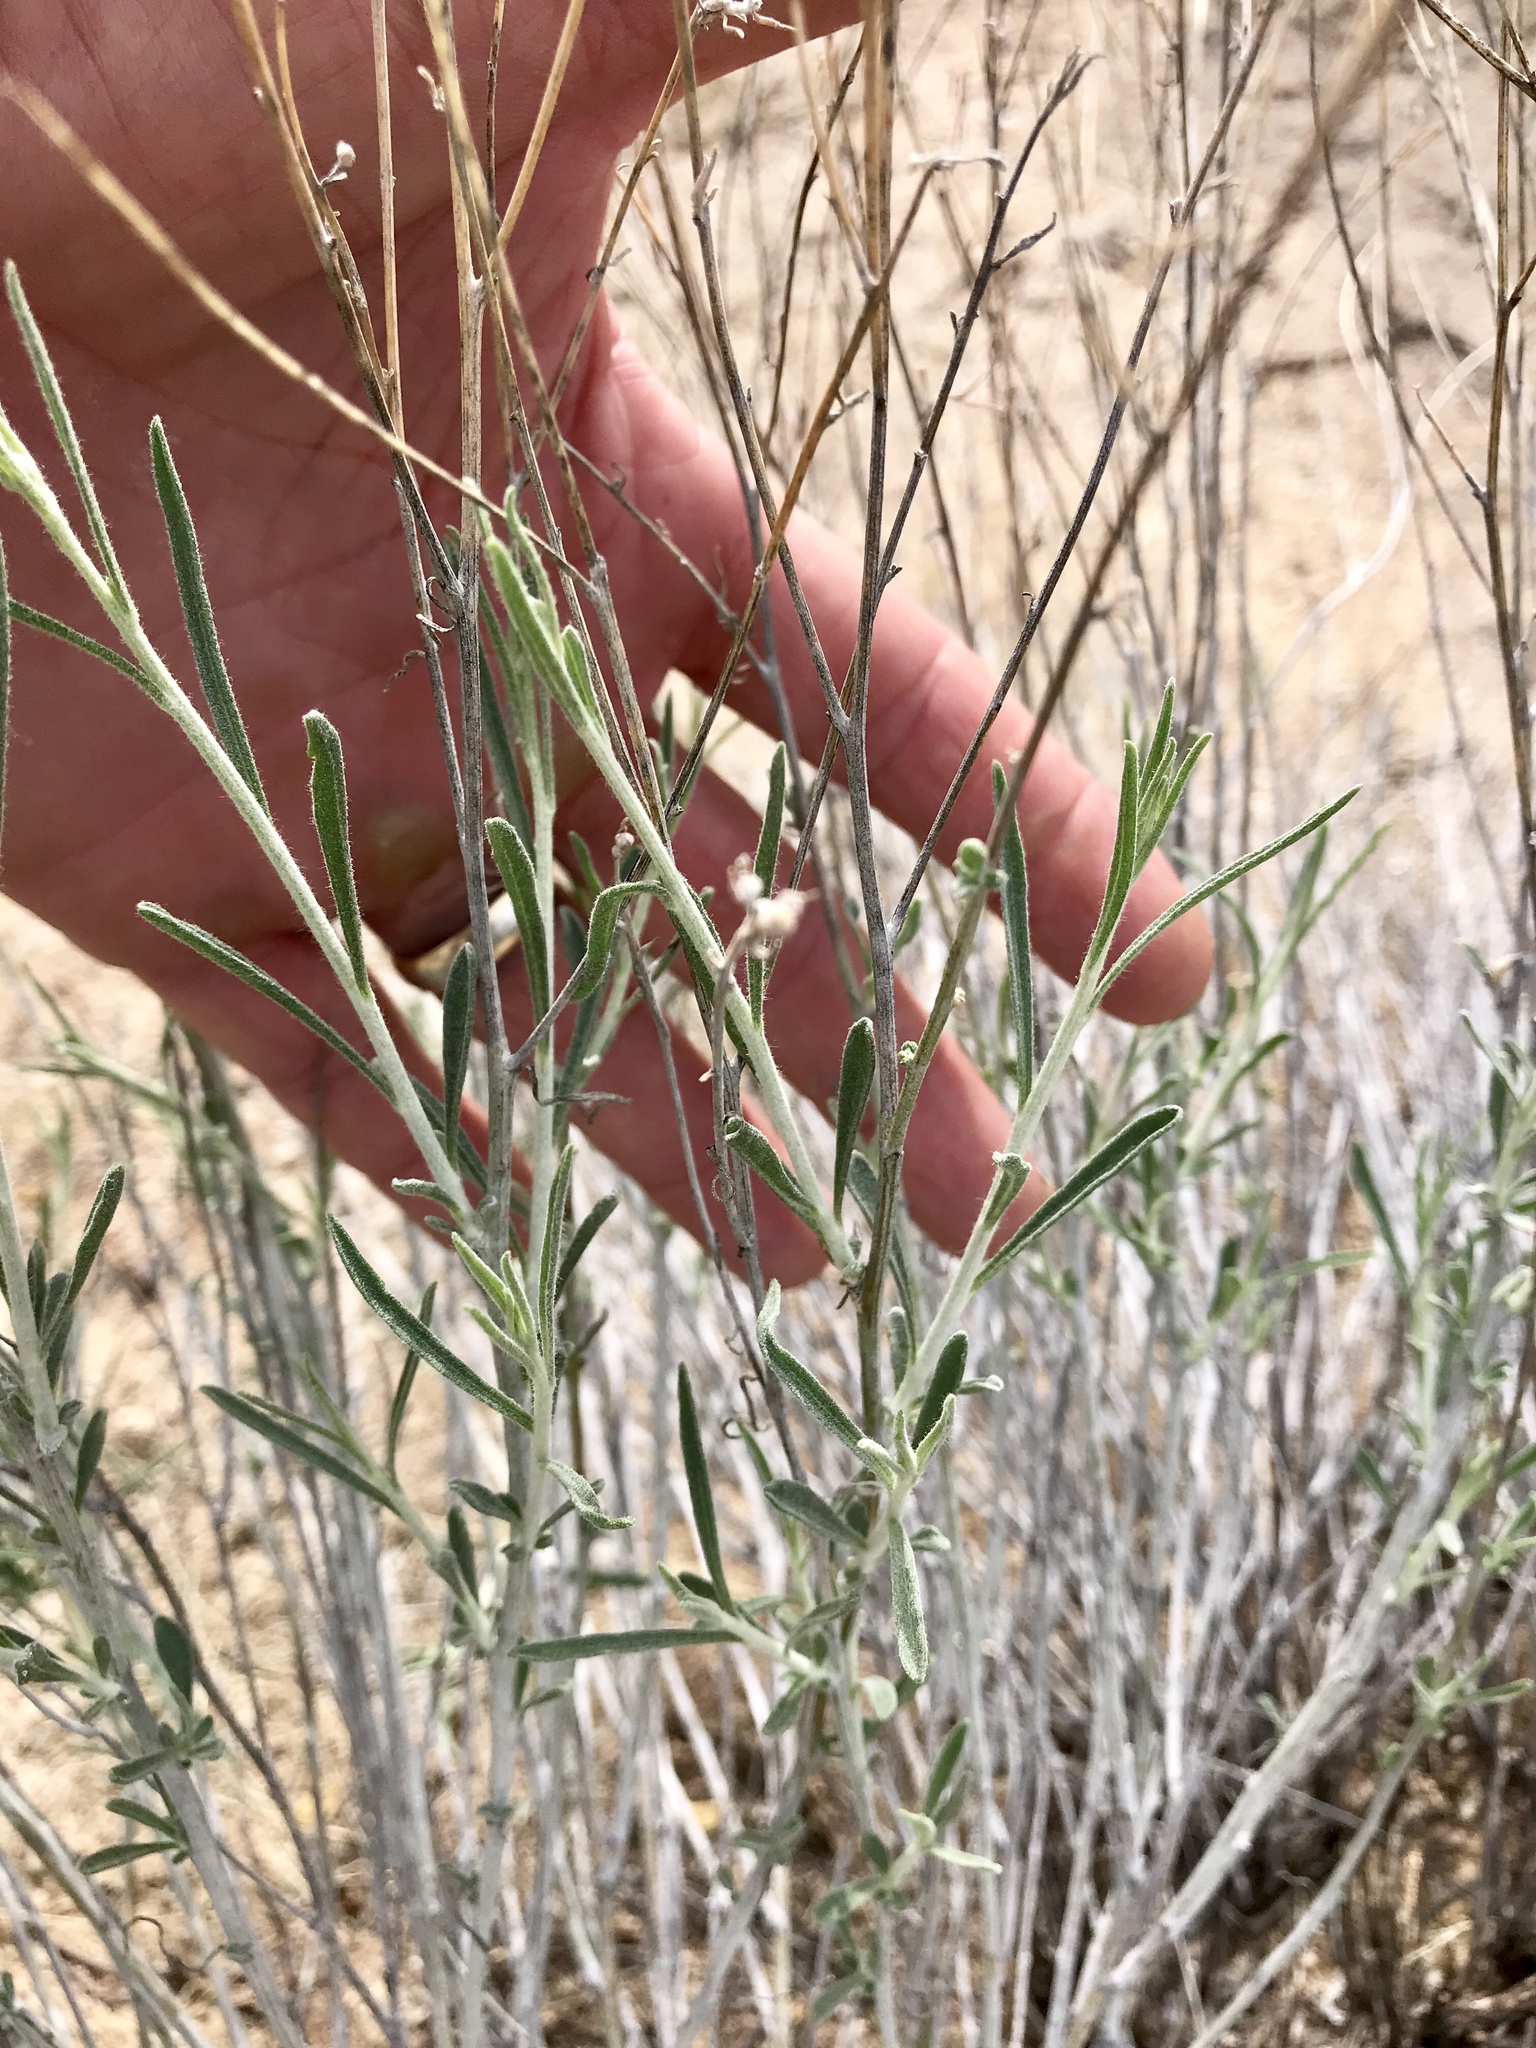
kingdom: Plantae
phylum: Tracheophyta
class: Magnoliopsida
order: Asterales
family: Asteraceae
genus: Psilostrophe
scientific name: Psilostrophe cooperi
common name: White-stem paper-flower
